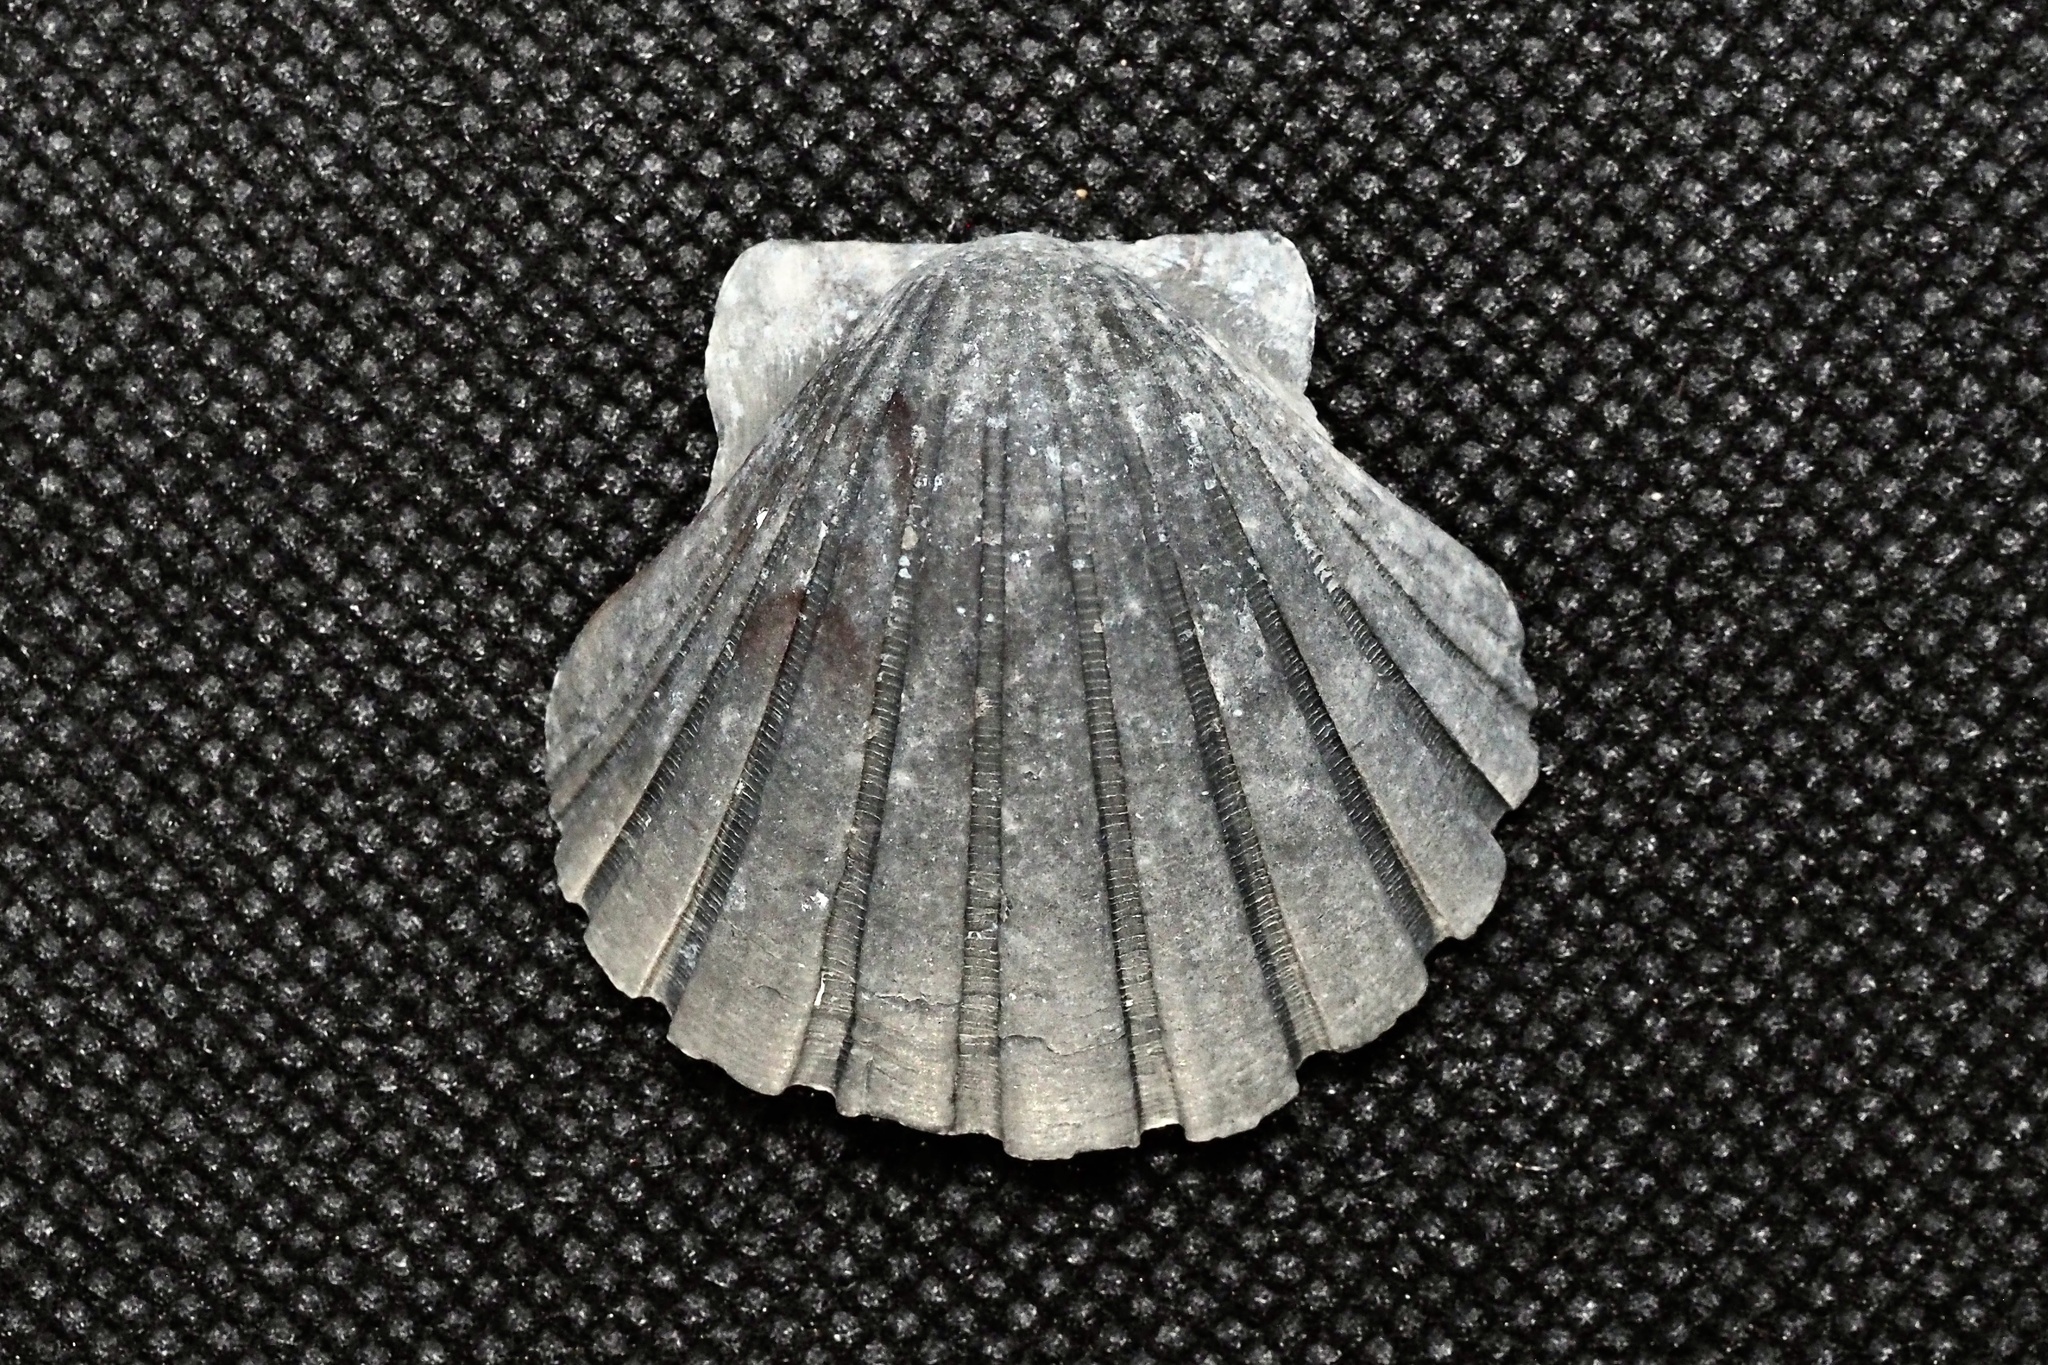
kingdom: Animalia
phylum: Mollusca
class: Bivalvia
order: Pectinida
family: Pectinidae
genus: Pecten
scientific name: Pecten albicans
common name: Japanese baking scallop
